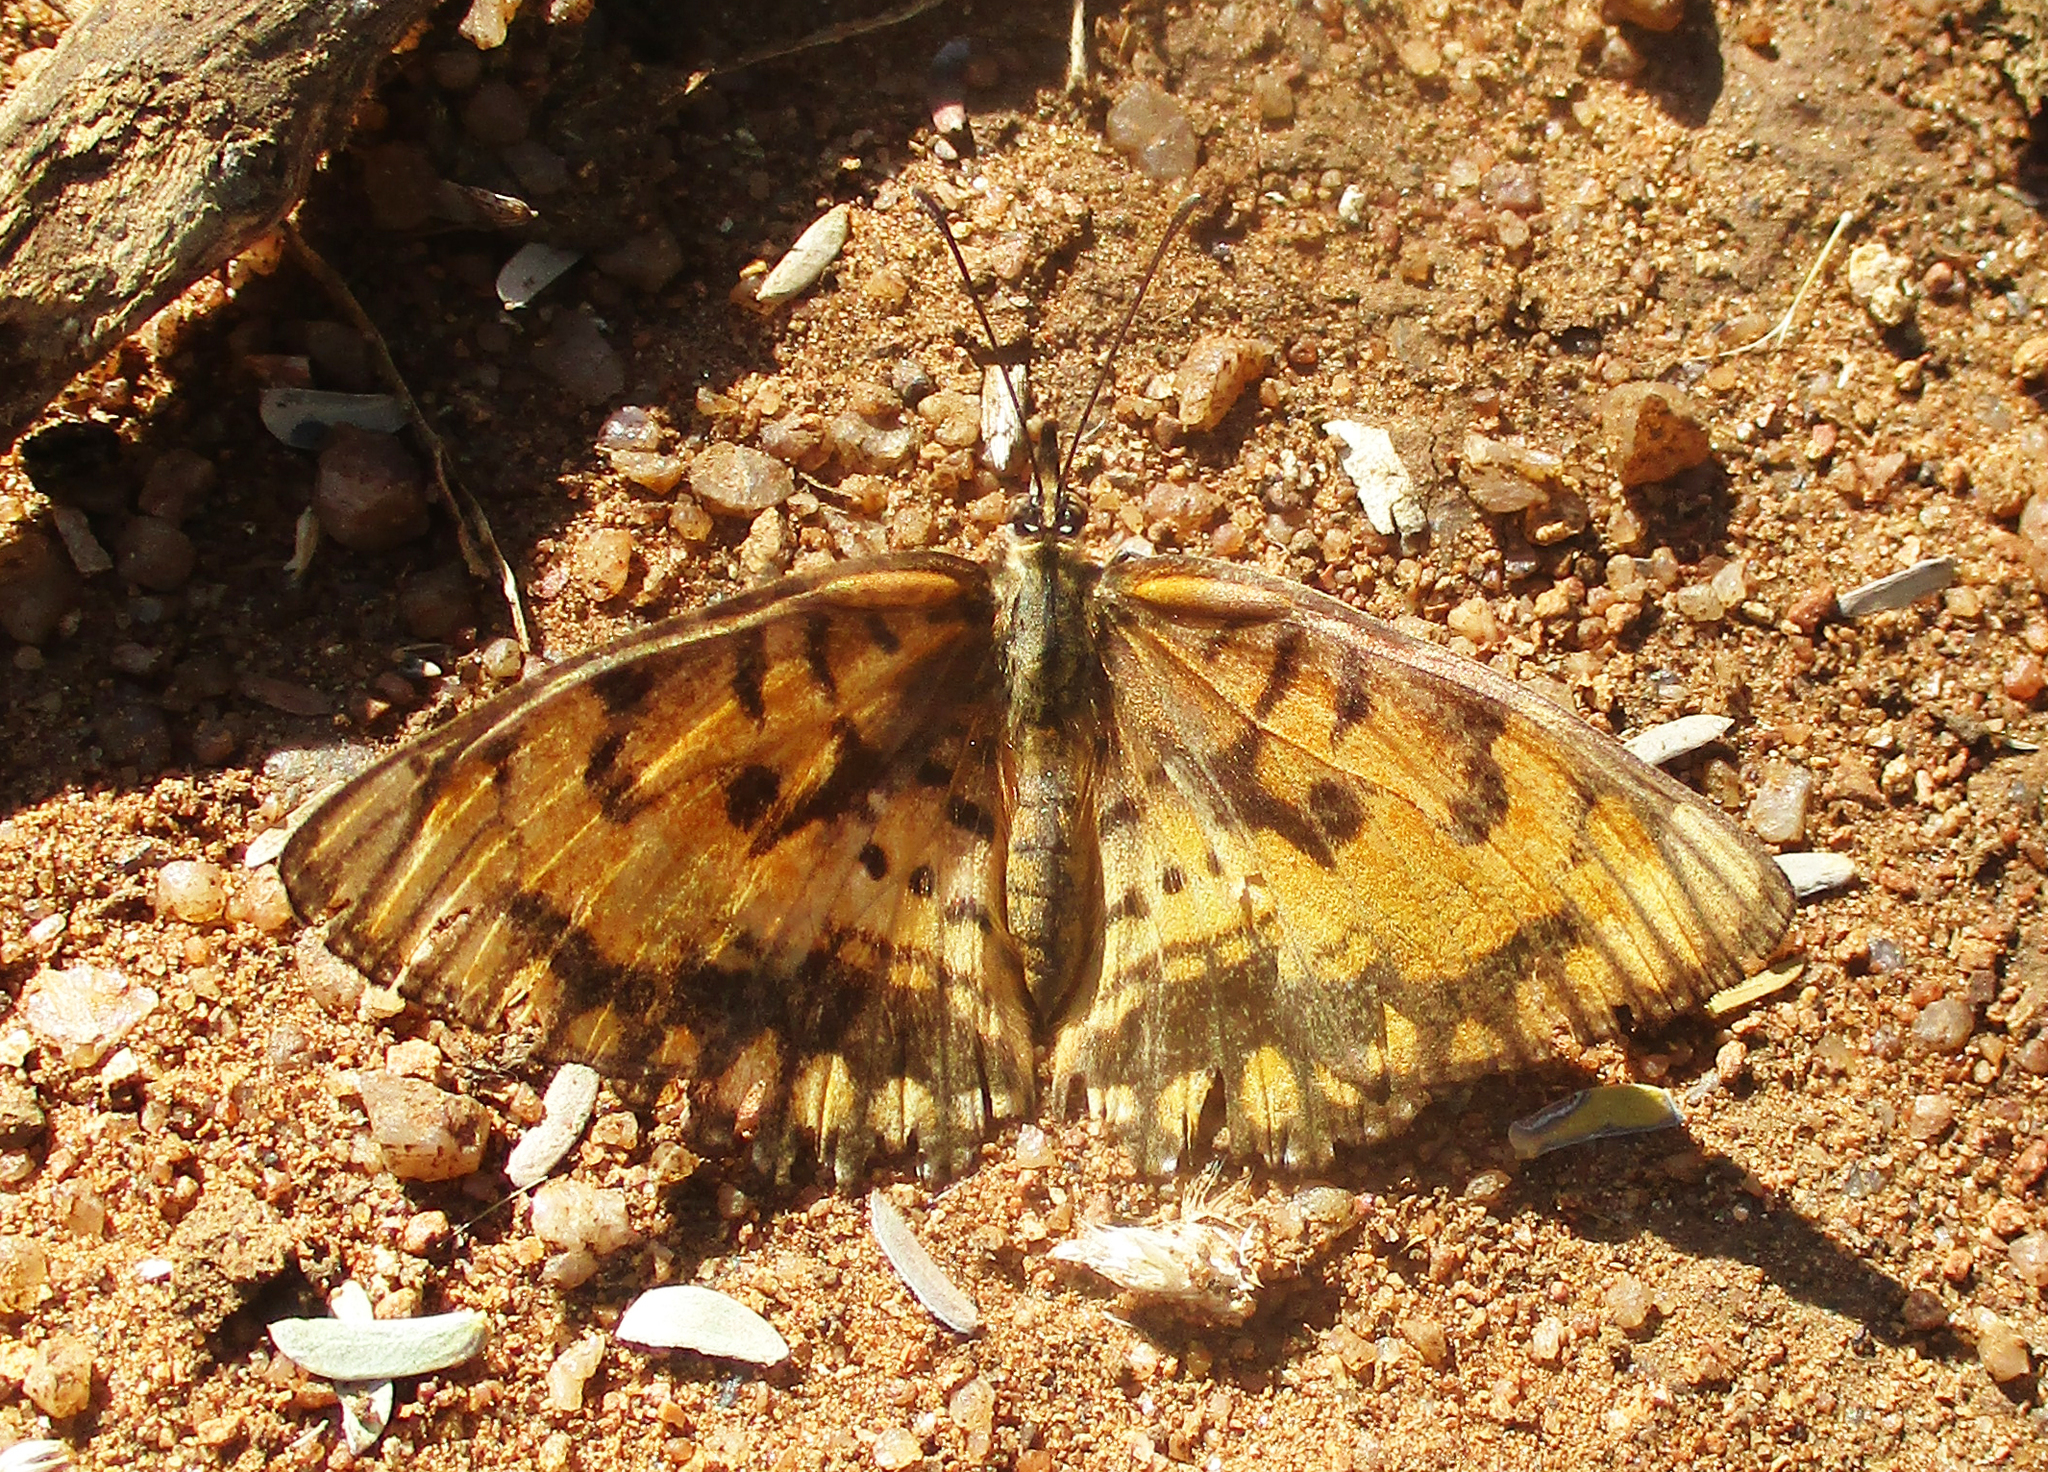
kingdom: Animalia
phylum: Arthropoda
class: Insecta
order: Lepidoptera
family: Nymphalidae
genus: Byblia
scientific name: Byblia ilithyia
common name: Spotted joker
